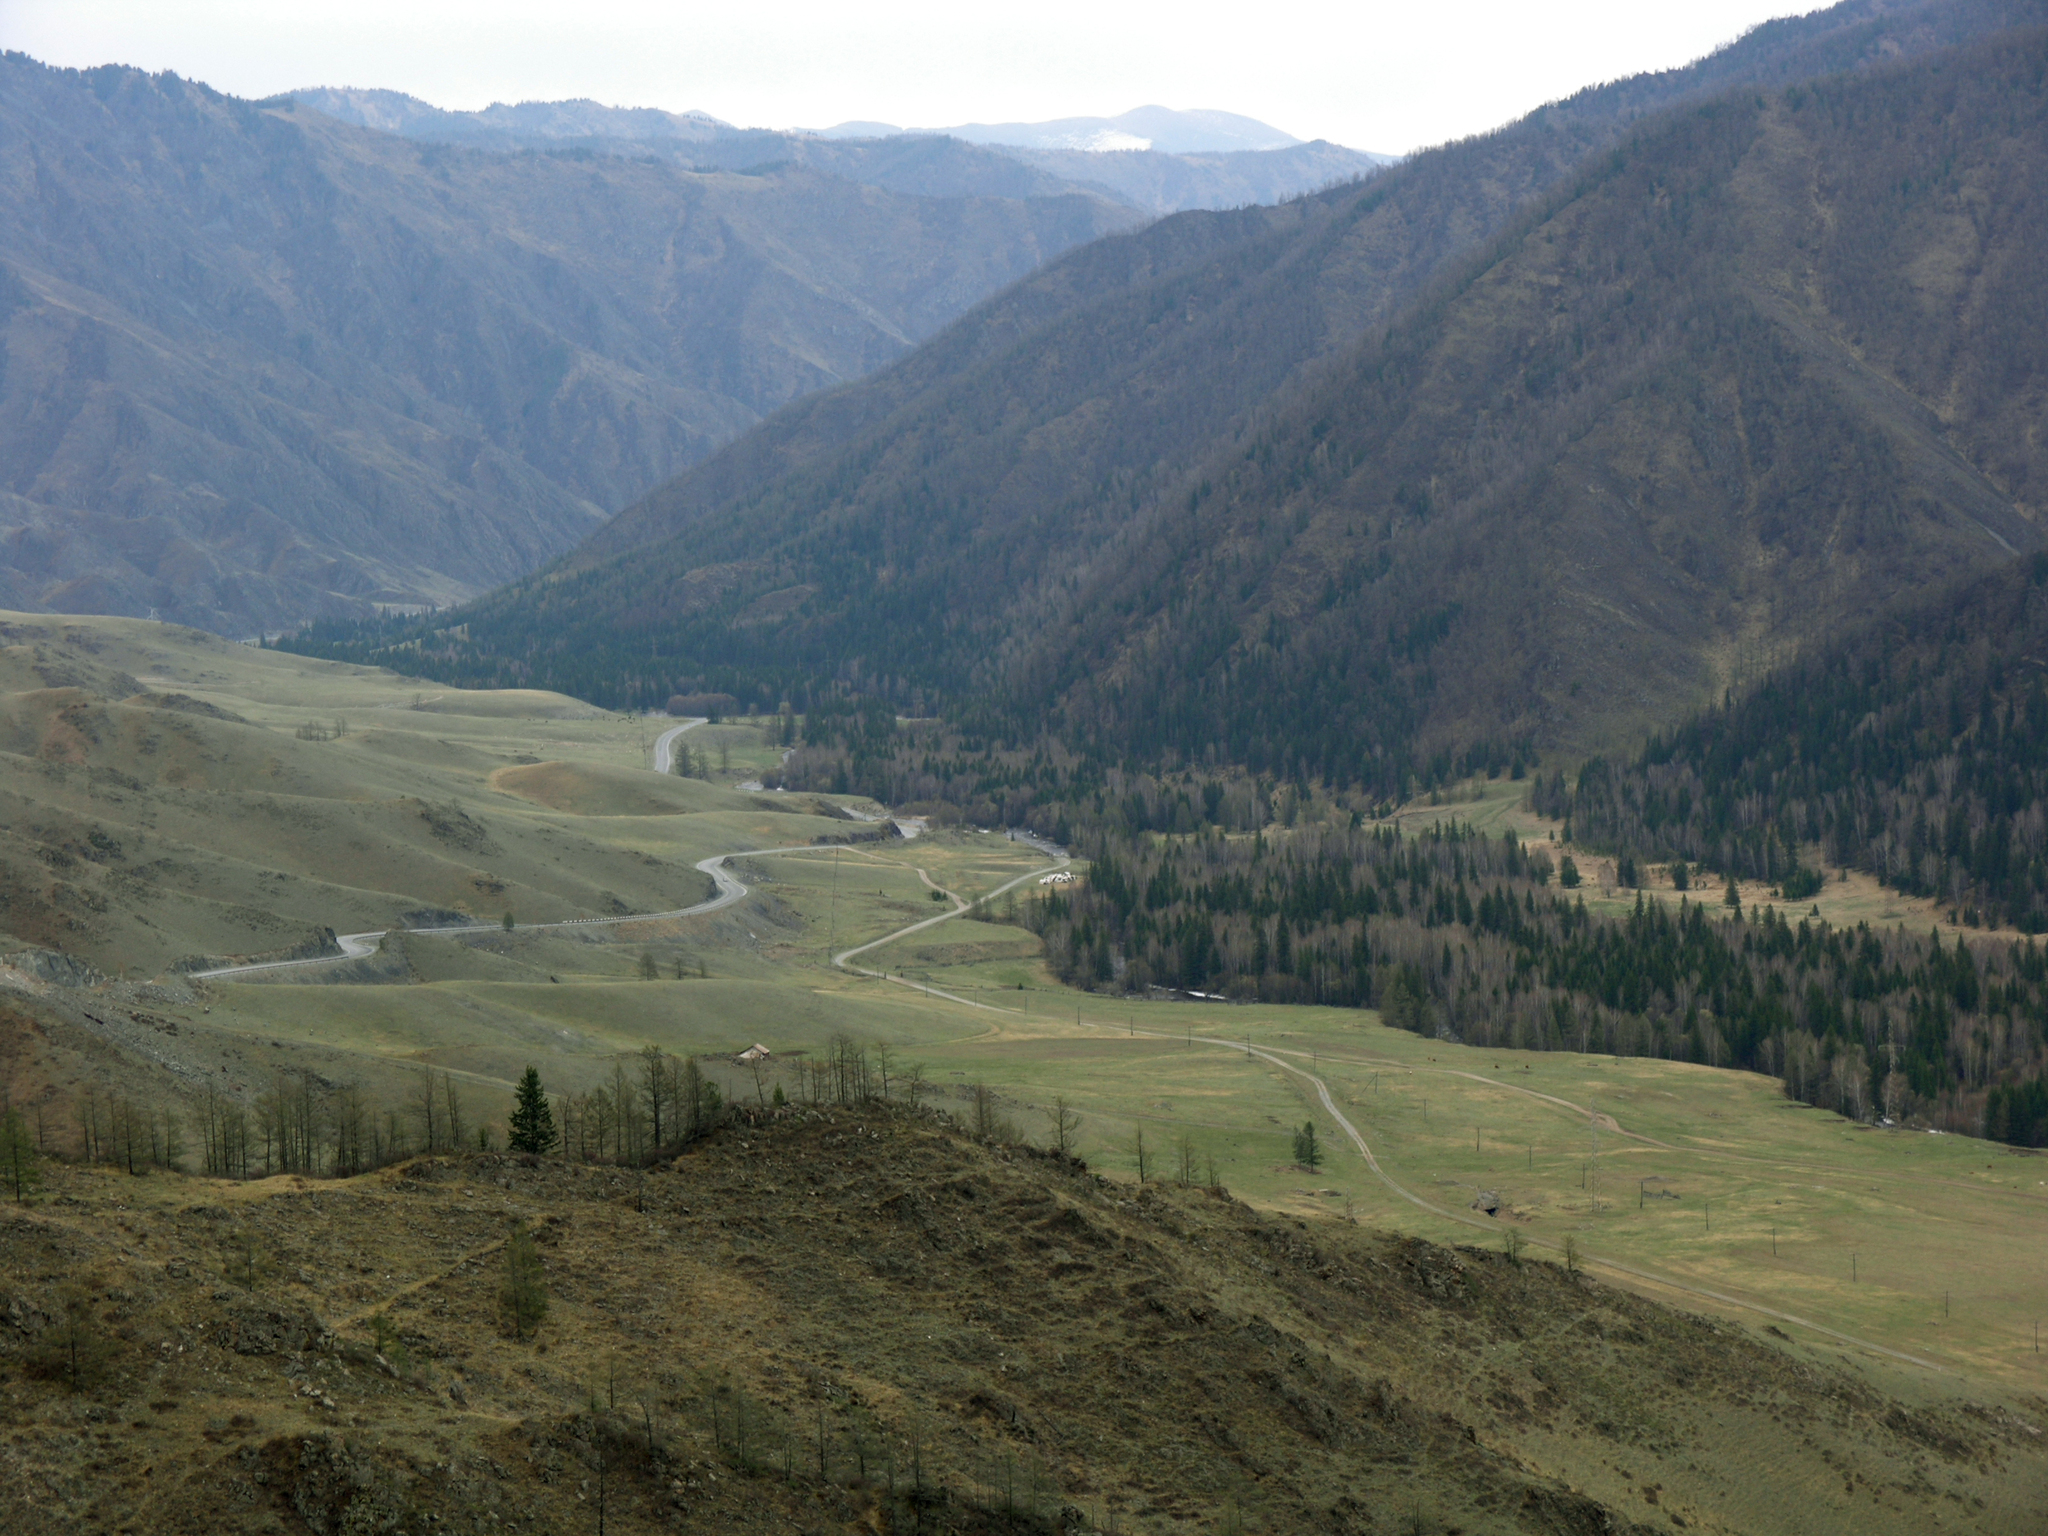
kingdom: Plantae
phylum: Tracheophyta
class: Pinopsida
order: Pinales
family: Pinaceae
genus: Picea
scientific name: Picea obovata
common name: Siberian spruce
